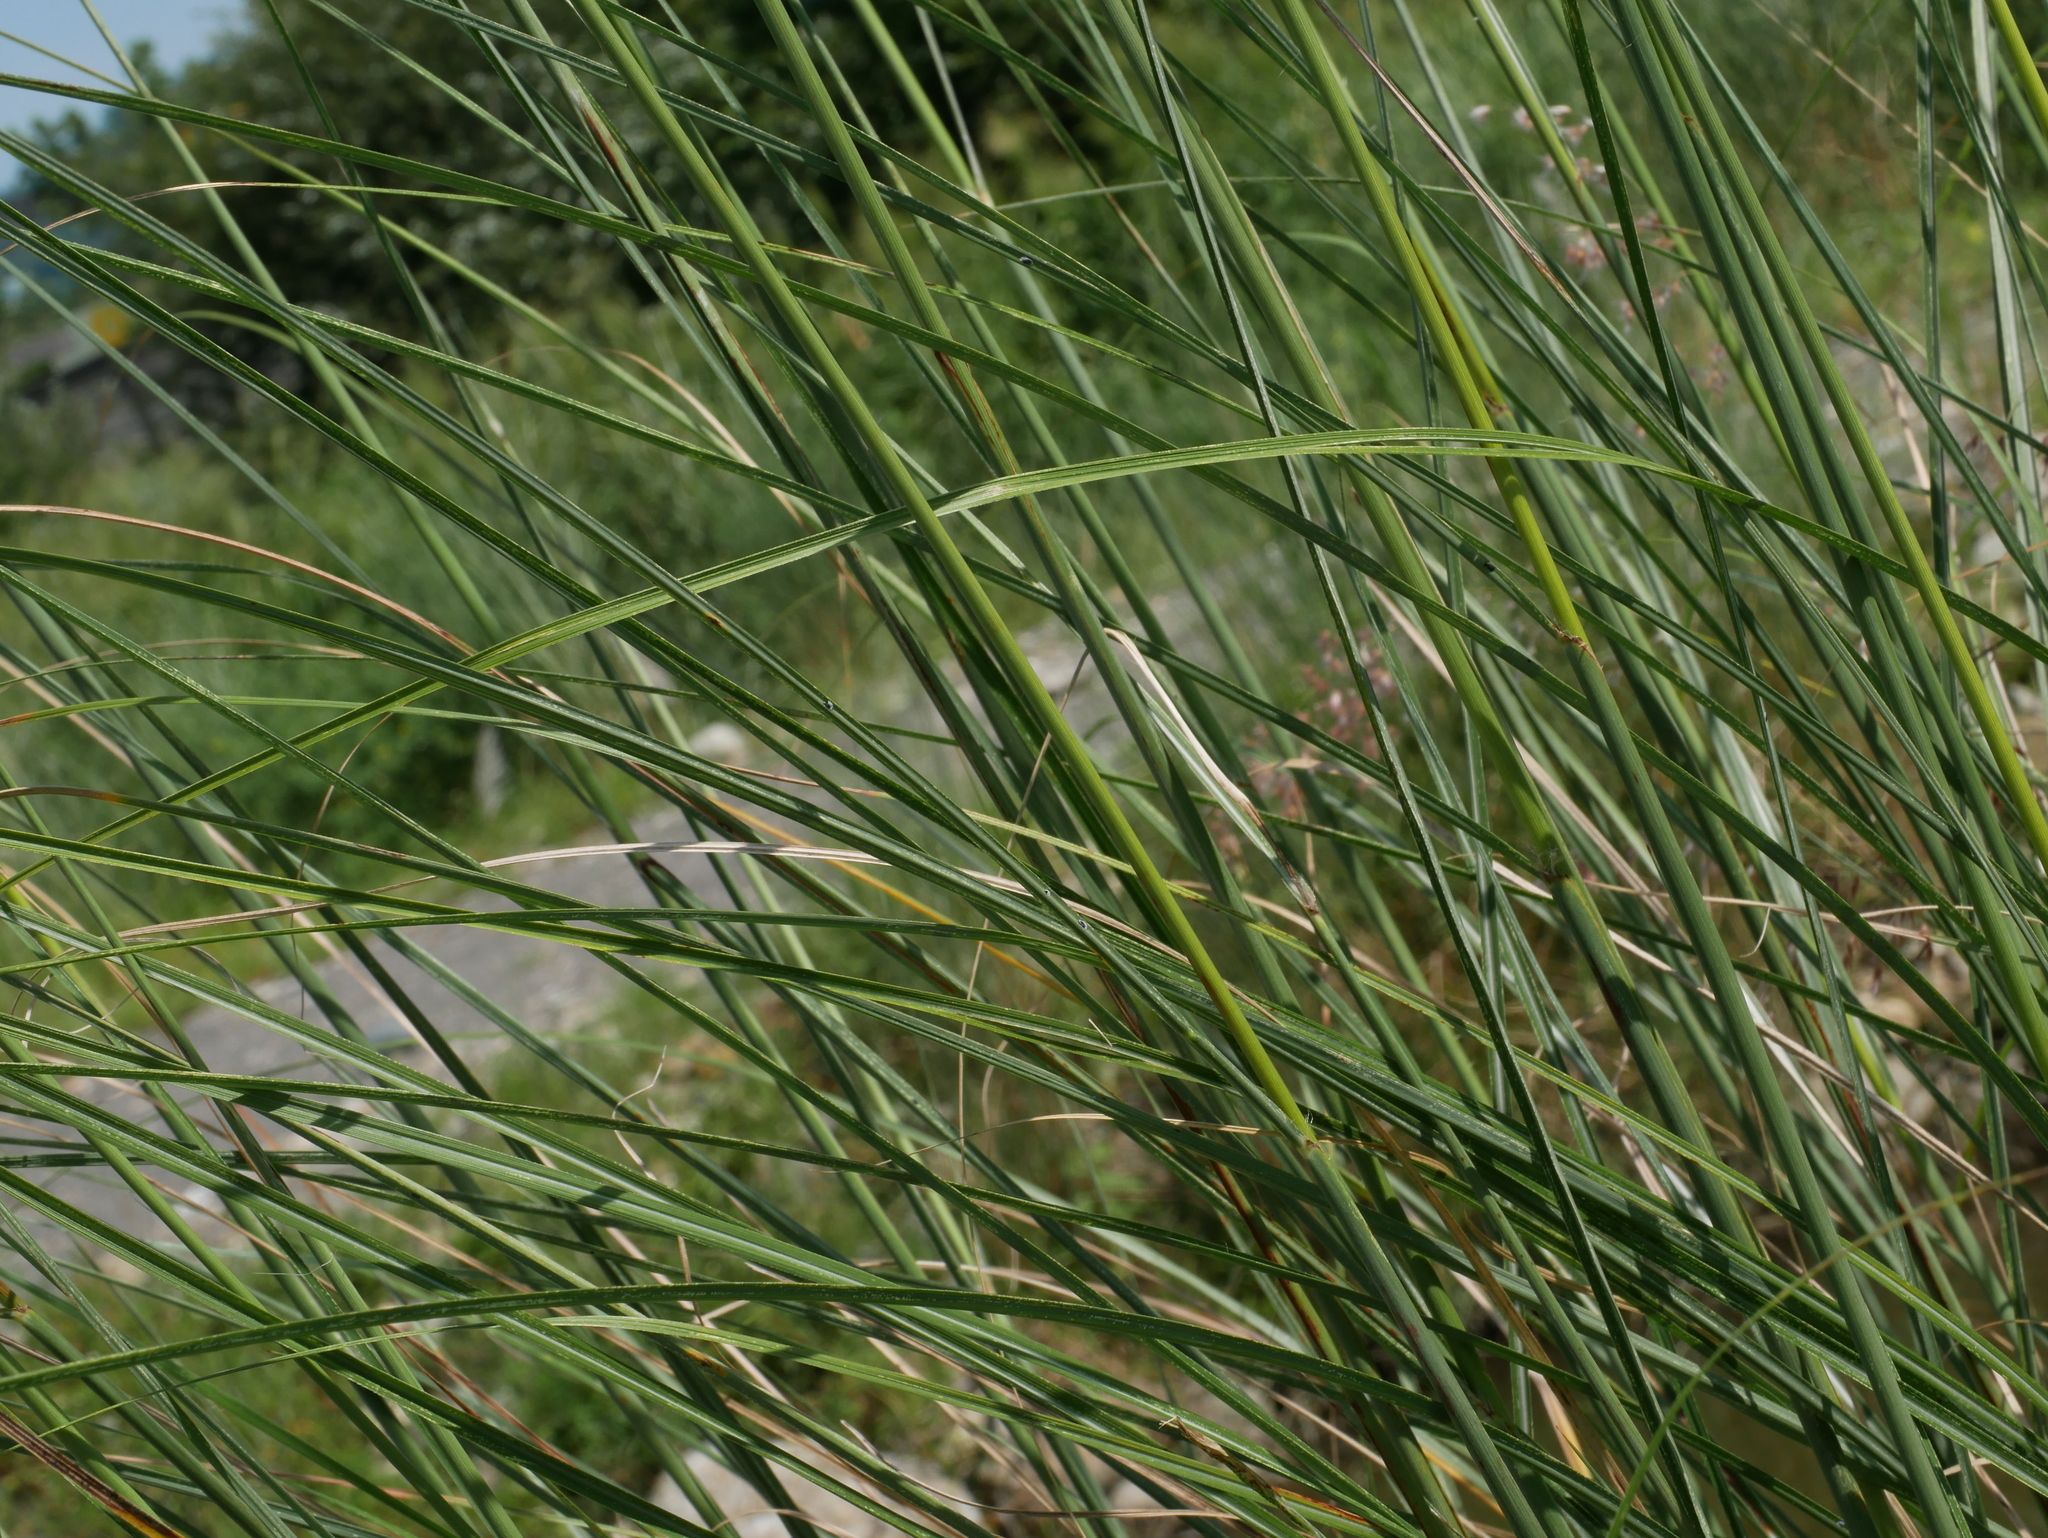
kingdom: Plantae
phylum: Tracheophyta
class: Liliopsida
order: Poales
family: Poaceae
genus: Saccharum
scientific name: Saccharum spontaneum
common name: Wild sugarcane
